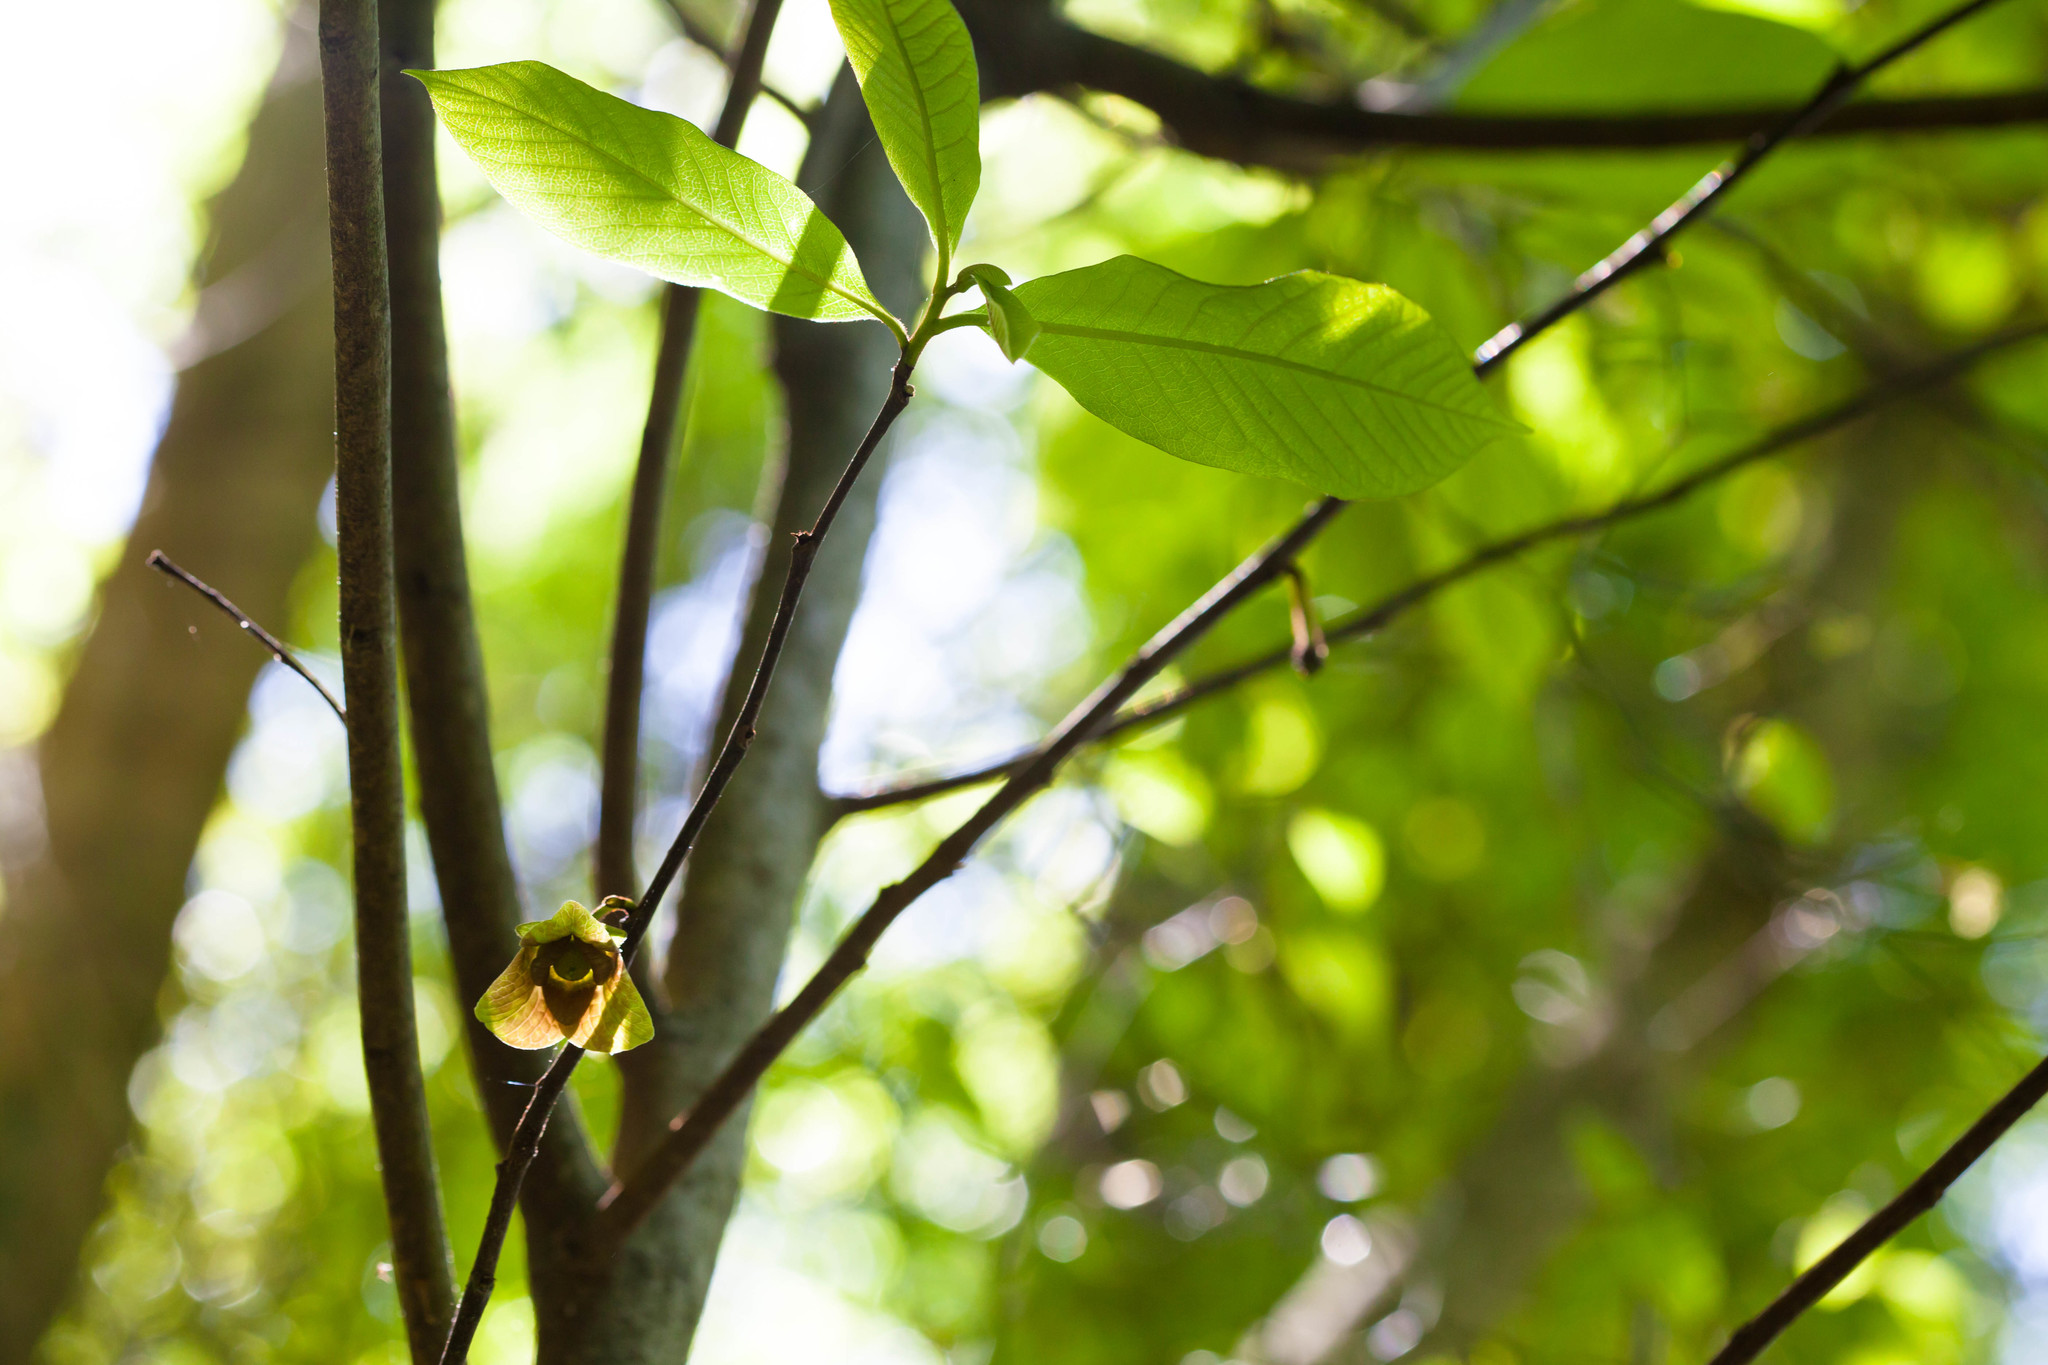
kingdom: Plantae
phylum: Tracheophyta
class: Magnoliopsida
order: Magnoliales
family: Annonaceae
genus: Asimina
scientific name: Asimina triloba
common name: Dog-banana
